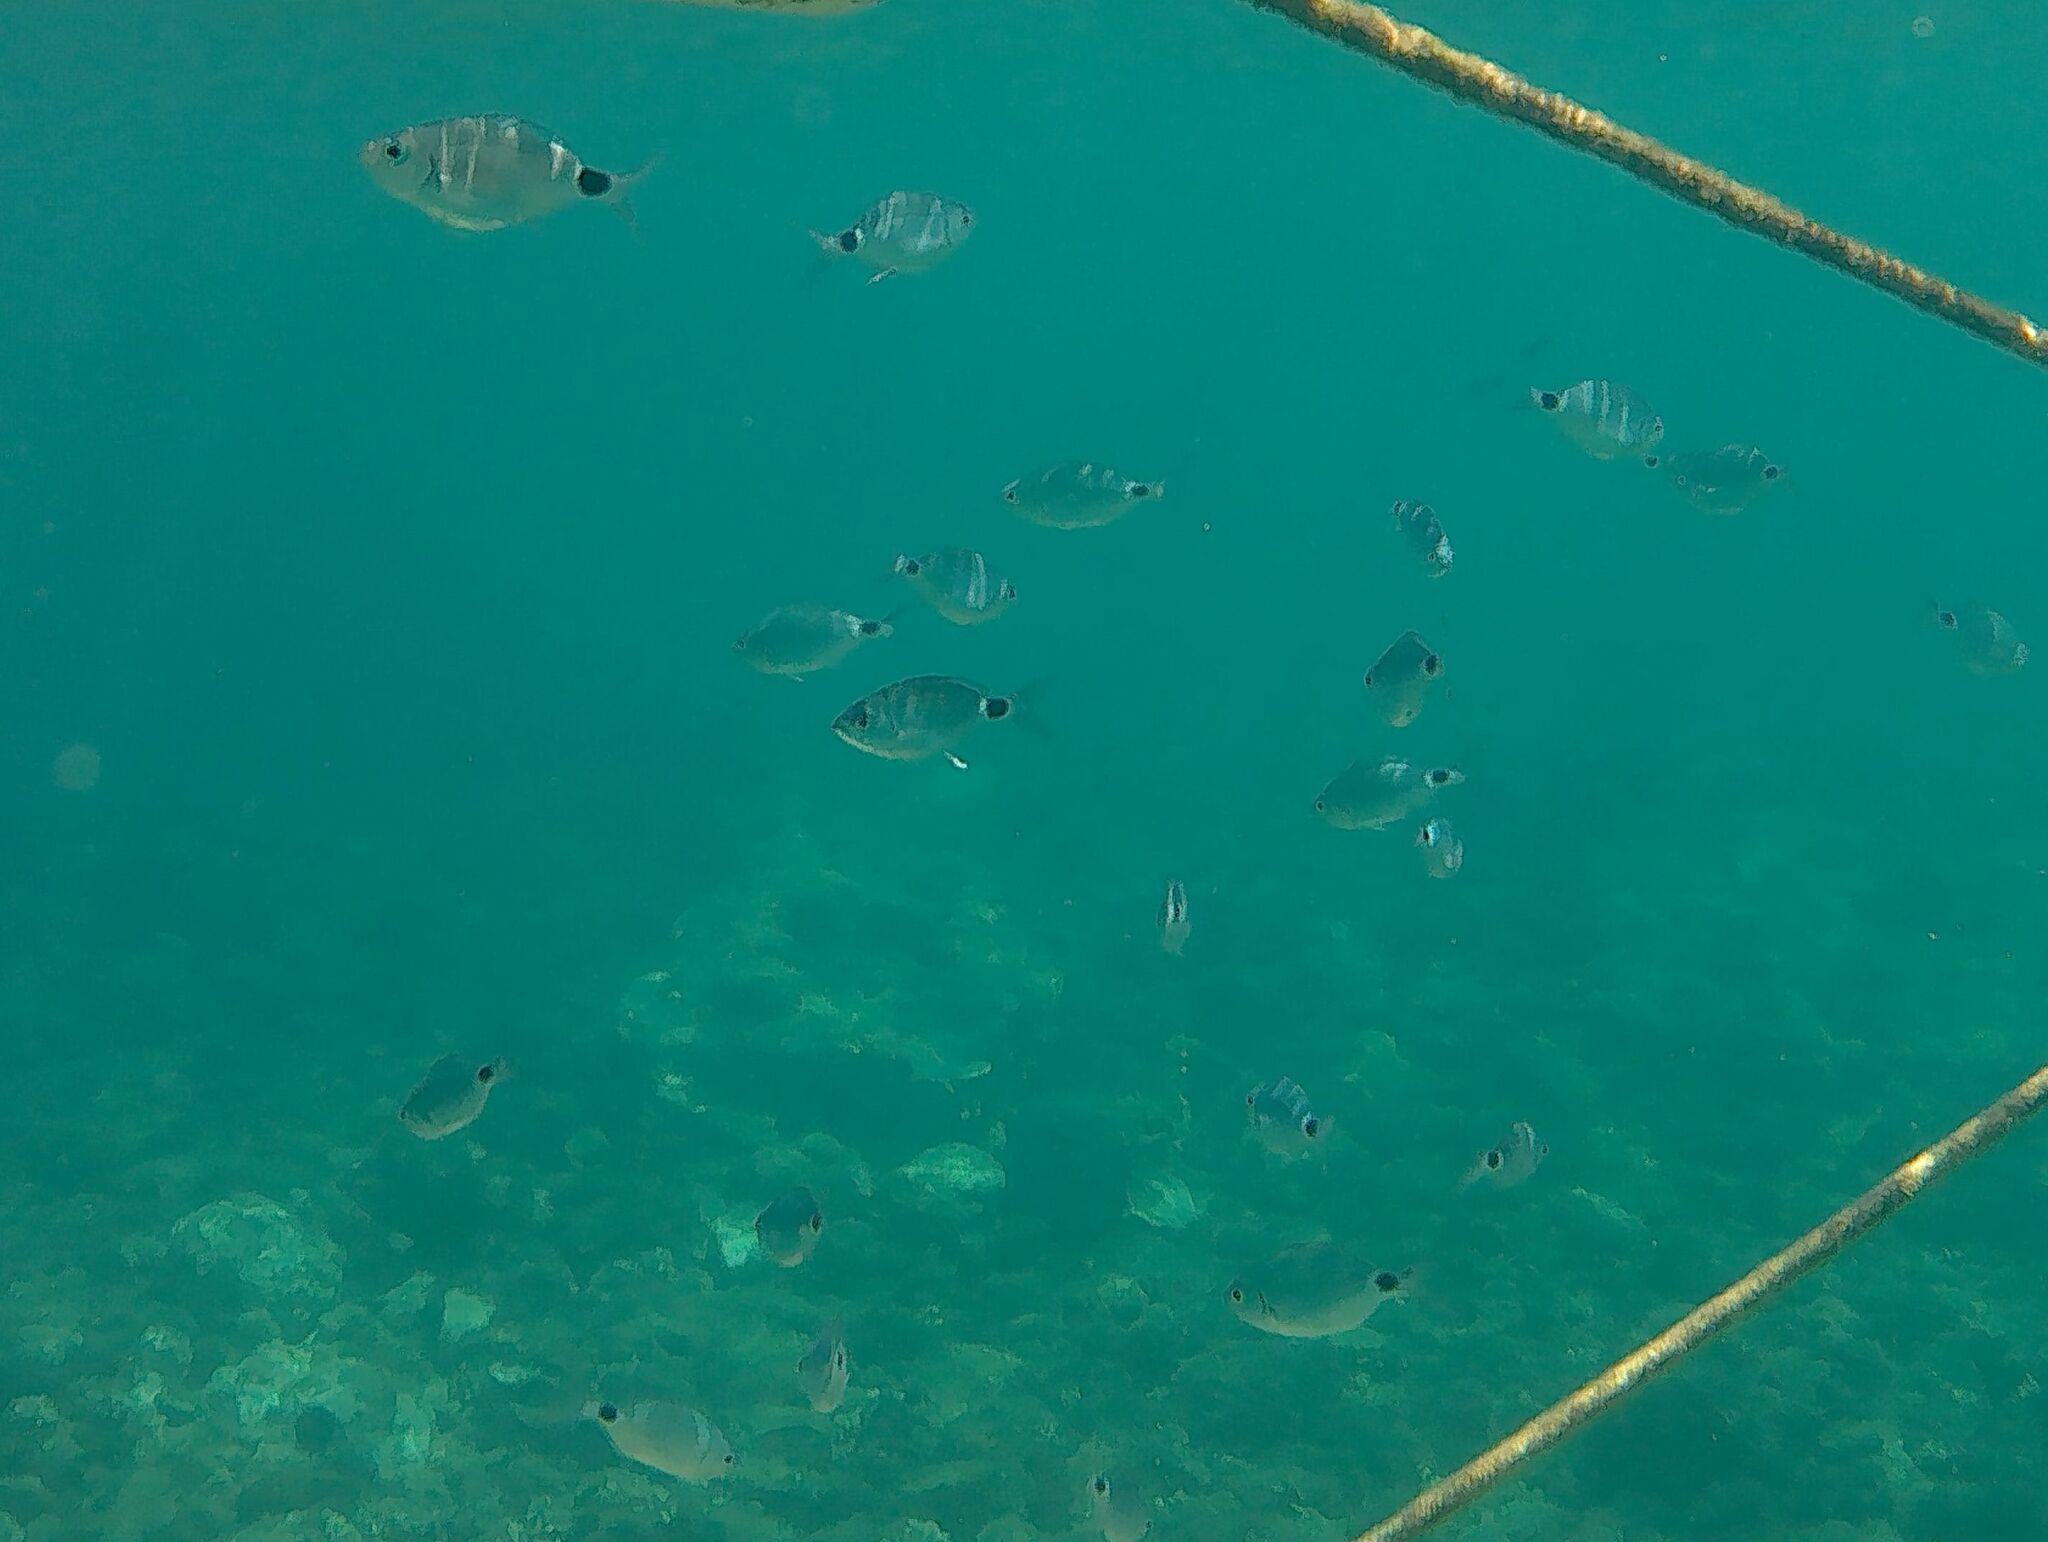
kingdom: Animalia
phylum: Chordata
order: Perciformes
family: Sparidae
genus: Oblada
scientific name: Oblada melanura
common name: Saddled seabream
